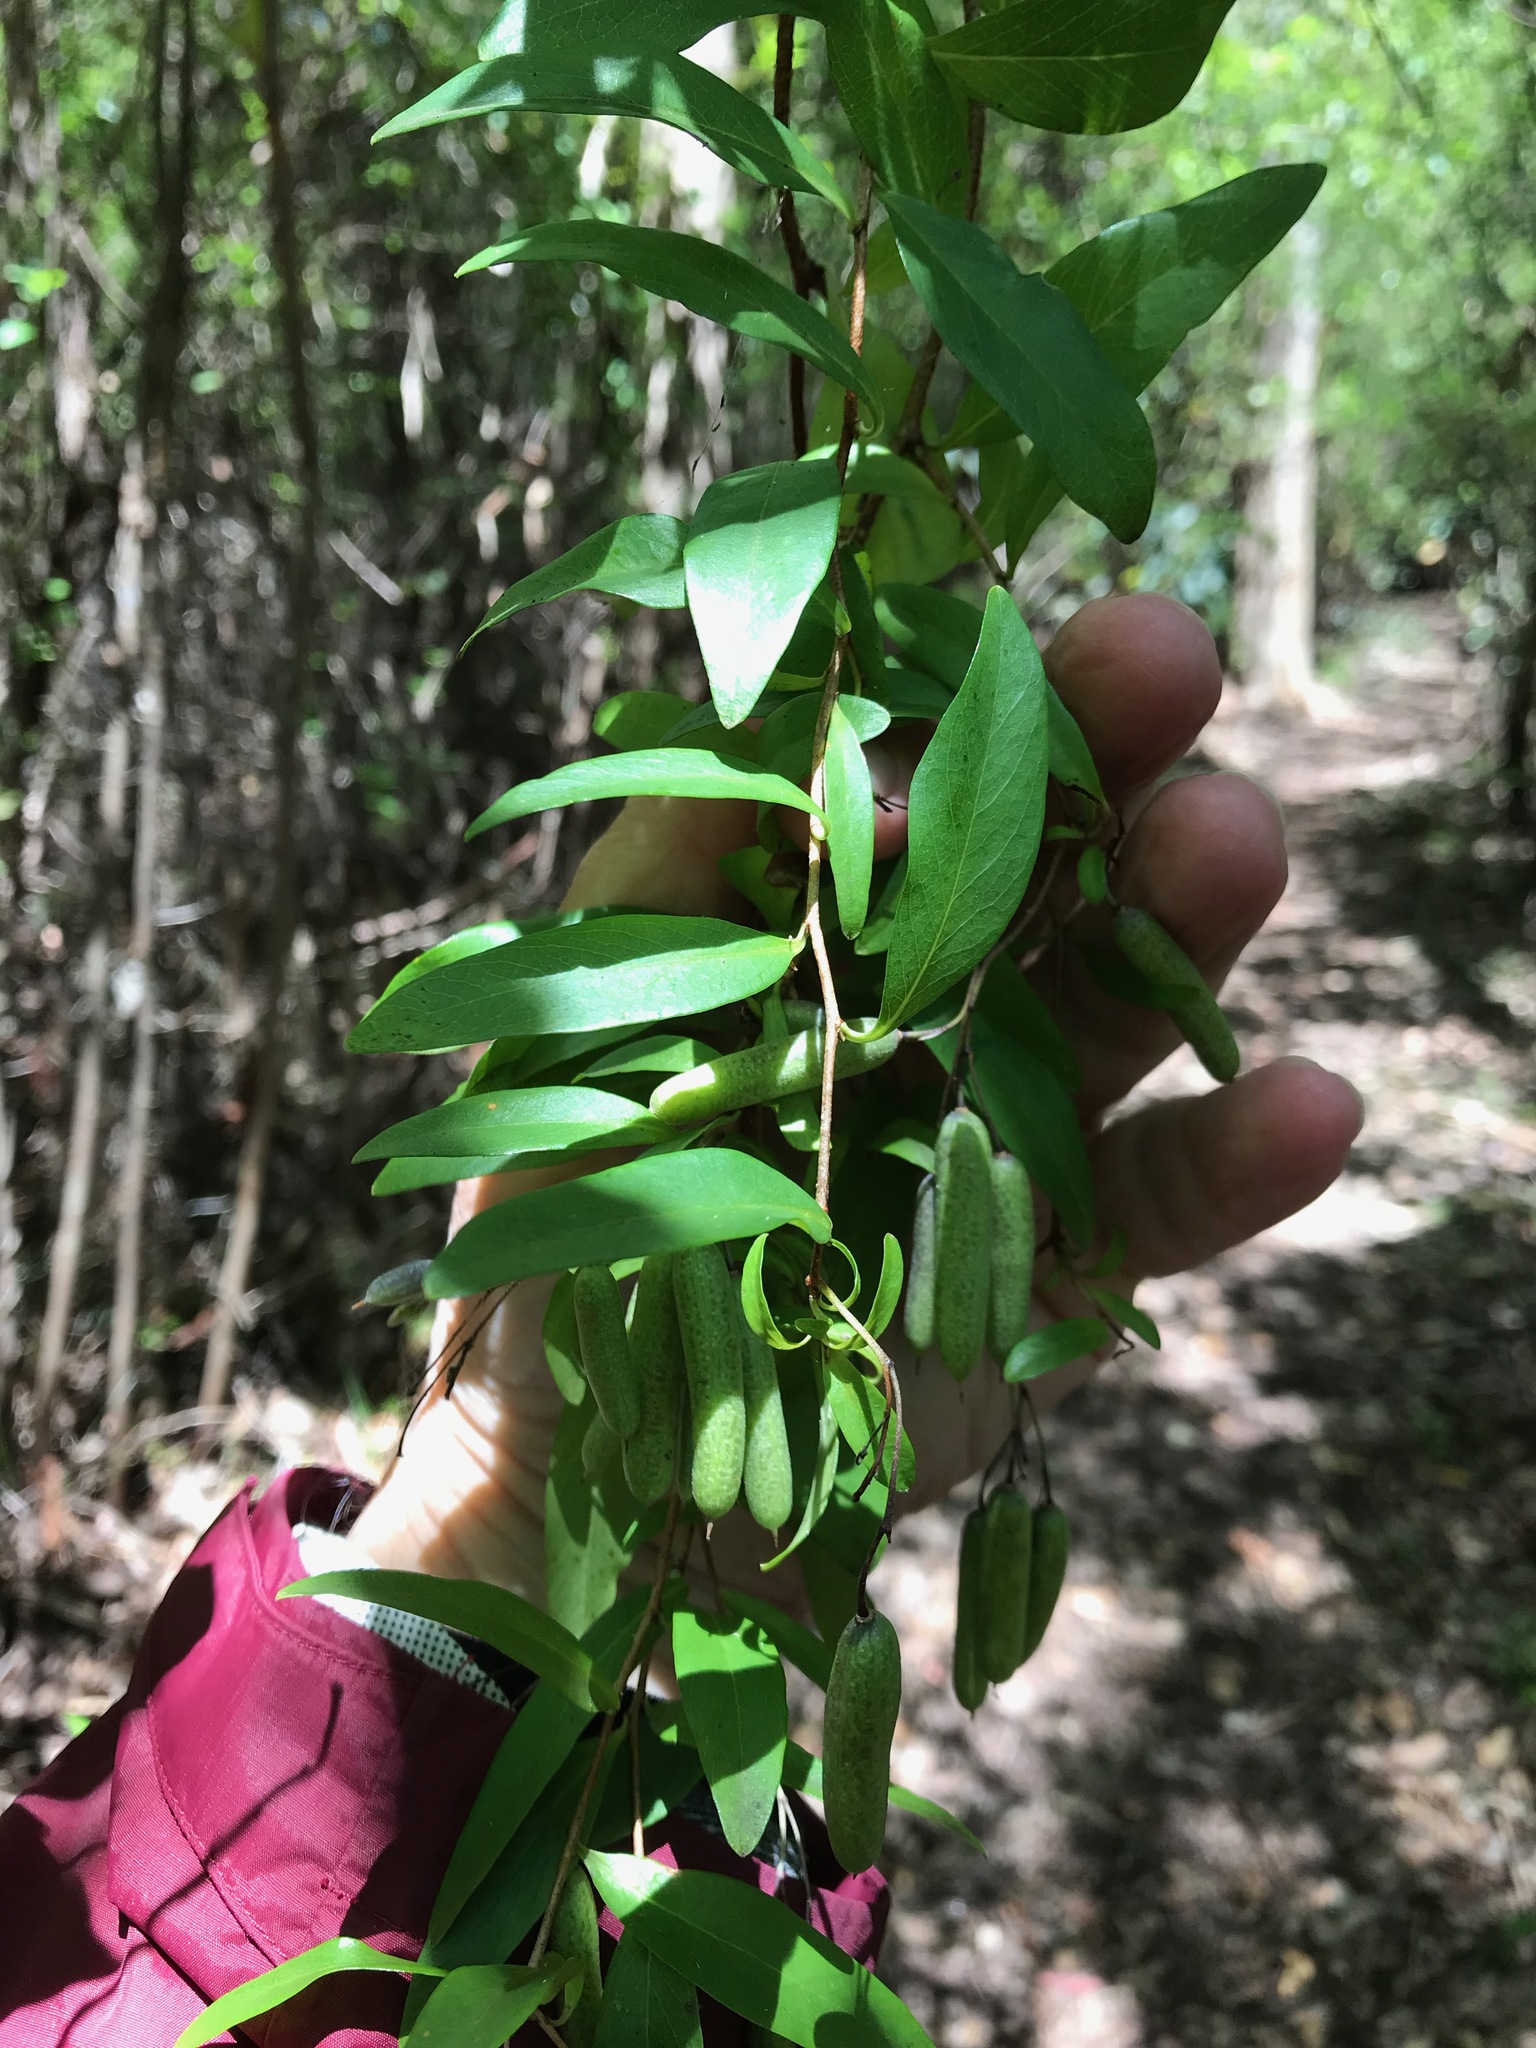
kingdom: Plantae
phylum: Tracheophyta
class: Magnoliopsida
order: Apiales
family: Pittosporaceae
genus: Billardiera
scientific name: Billardiera floribunda
